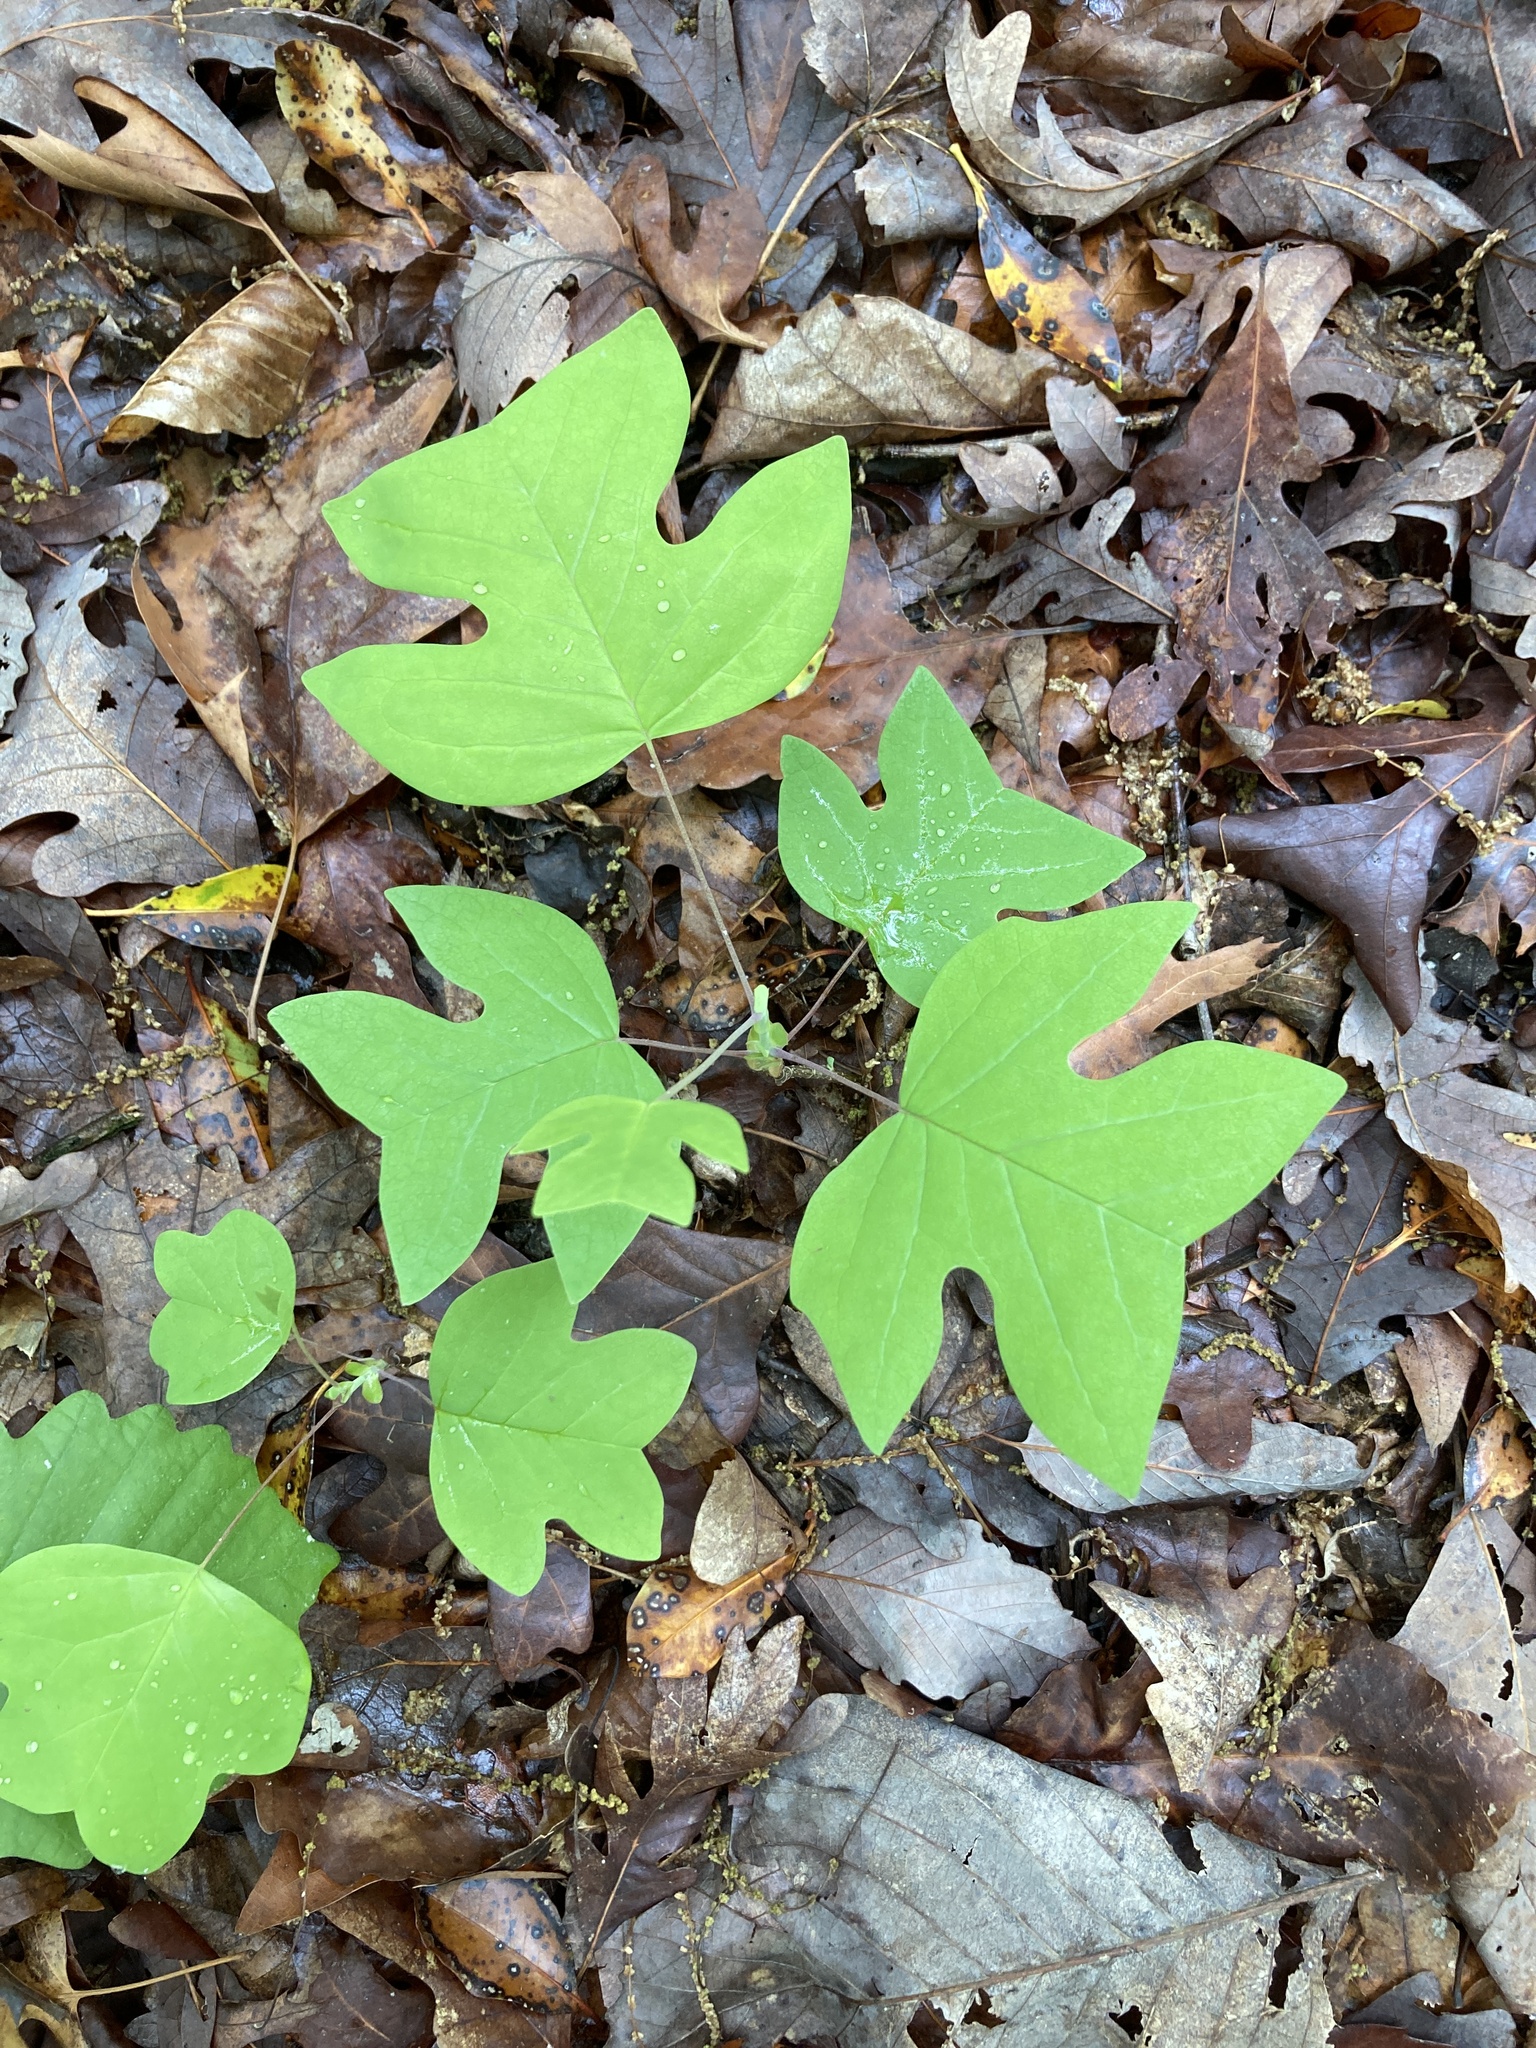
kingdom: Plantae
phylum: Tracheophyta
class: Magnoliopsida
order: Magnoliales
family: Magnoliaceae
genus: Liriodendron
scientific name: Liriodendron tulipifera
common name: Tulip tree
